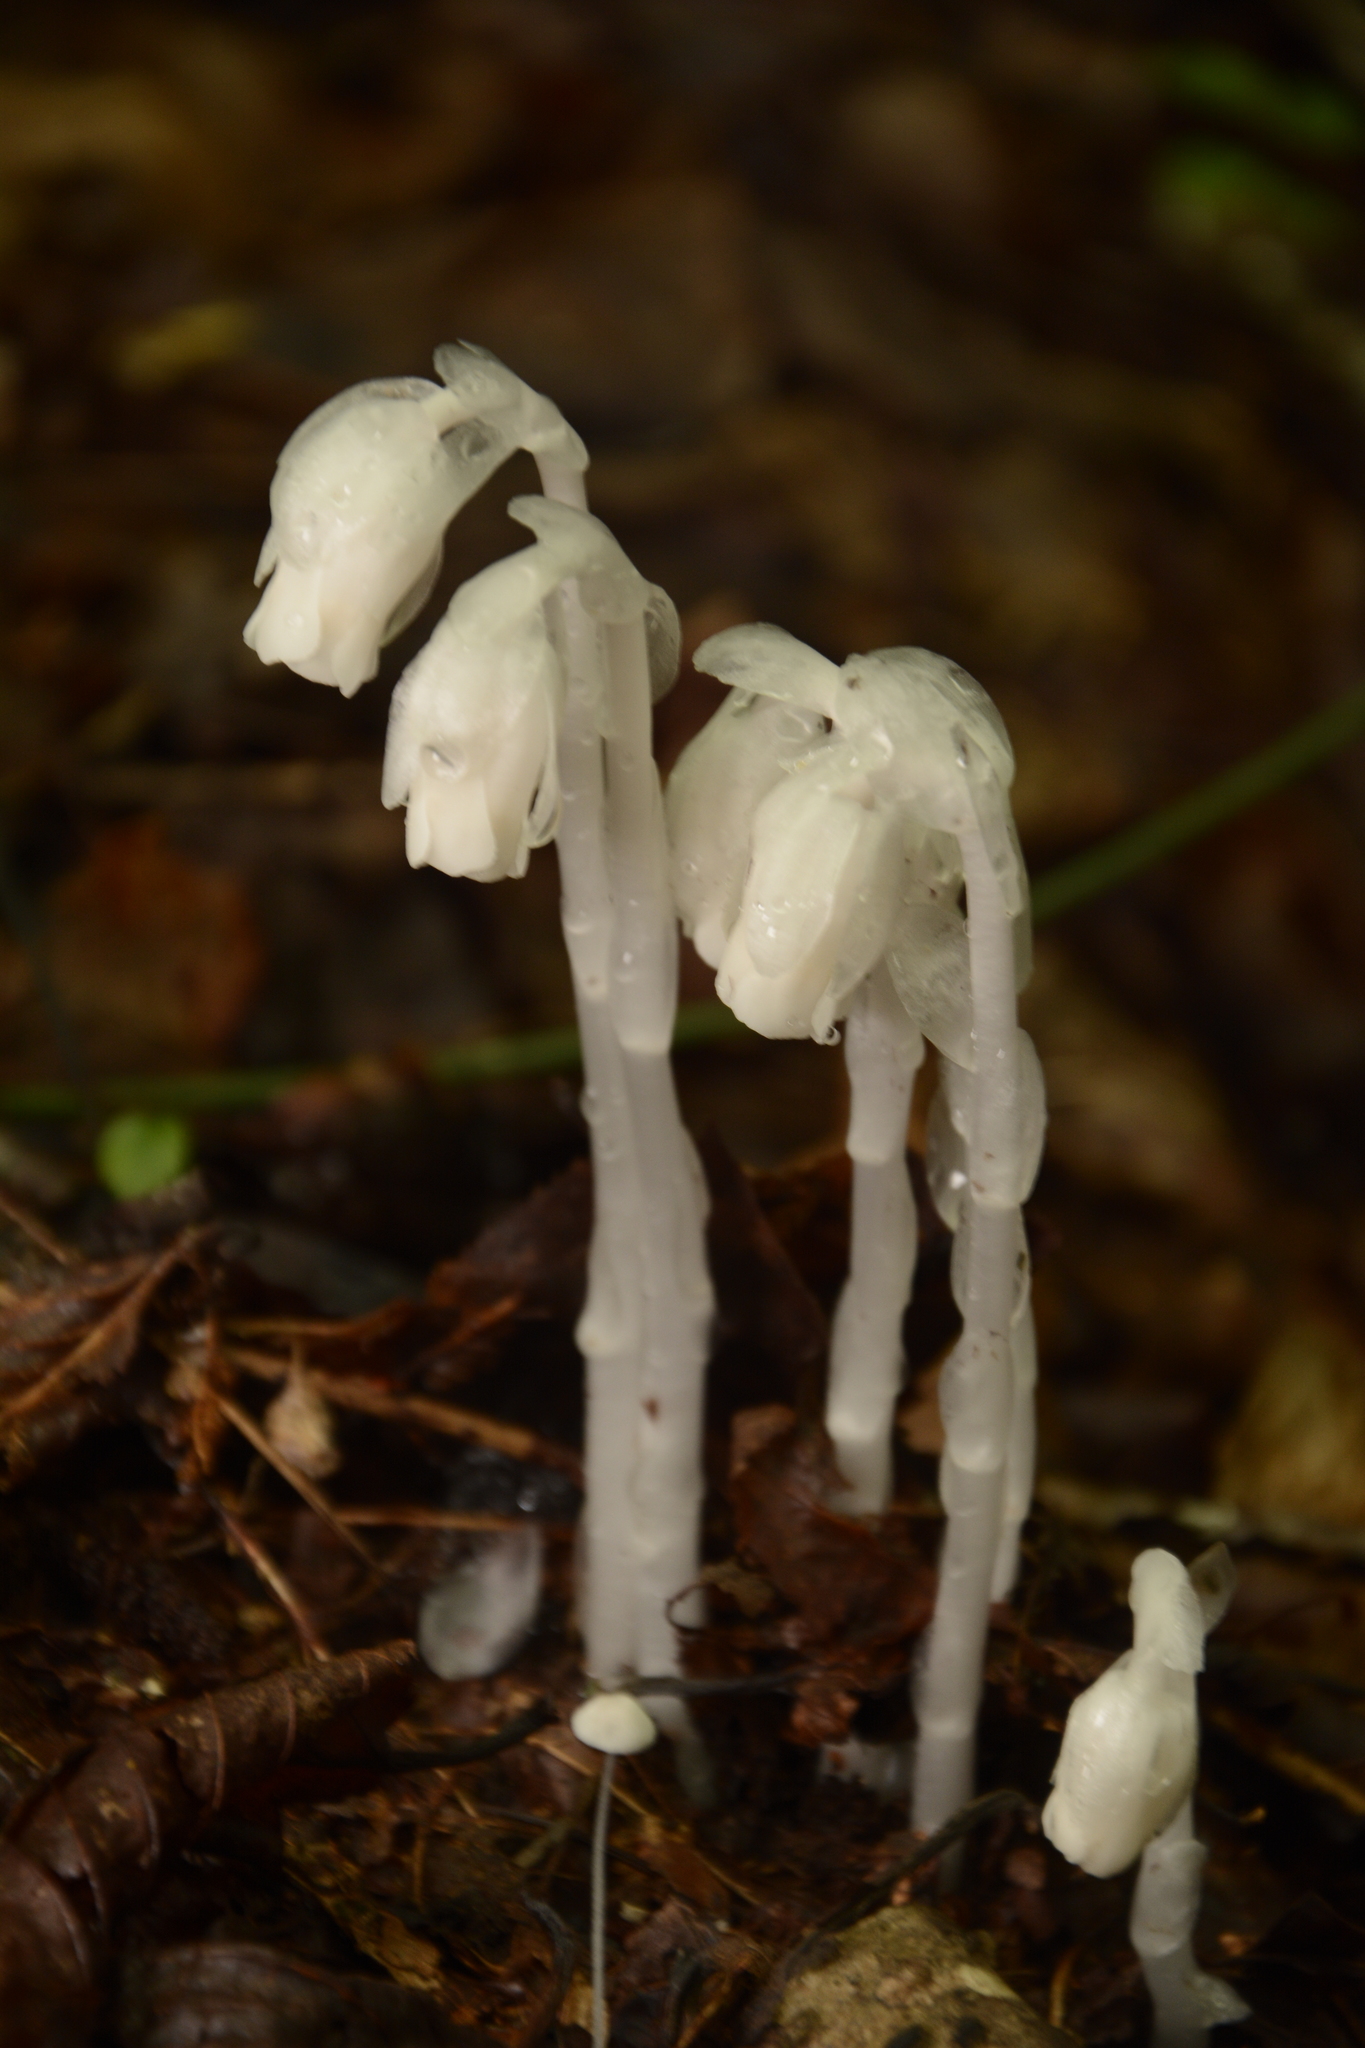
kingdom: Plantae
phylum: Tracheophyta
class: Magnoliopsida
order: Ericales
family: Ericaceae
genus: Monotropa
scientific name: Monotropa uniflora
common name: Convulsion root
